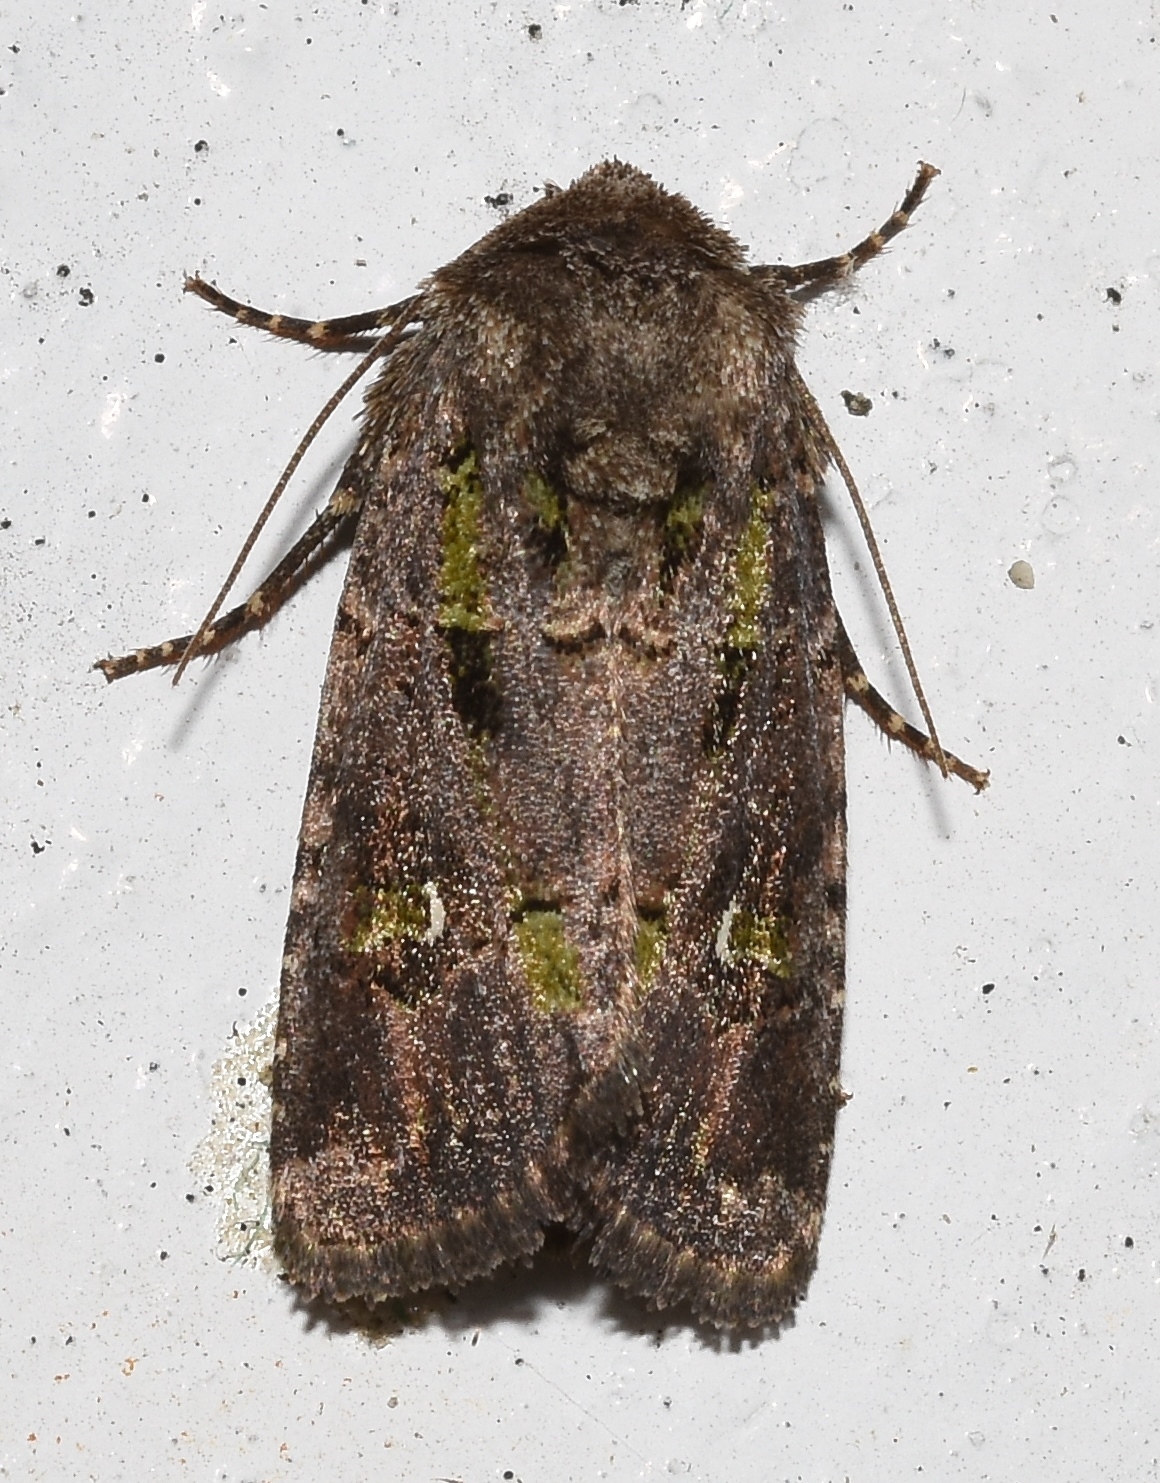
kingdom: Animalia
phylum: Arthropoda
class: Insecta
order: Lepidoptera
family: Noctuidae
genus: Lacinipolia
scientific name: Lacinipolia renigera
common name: Kidney-spotted minor
